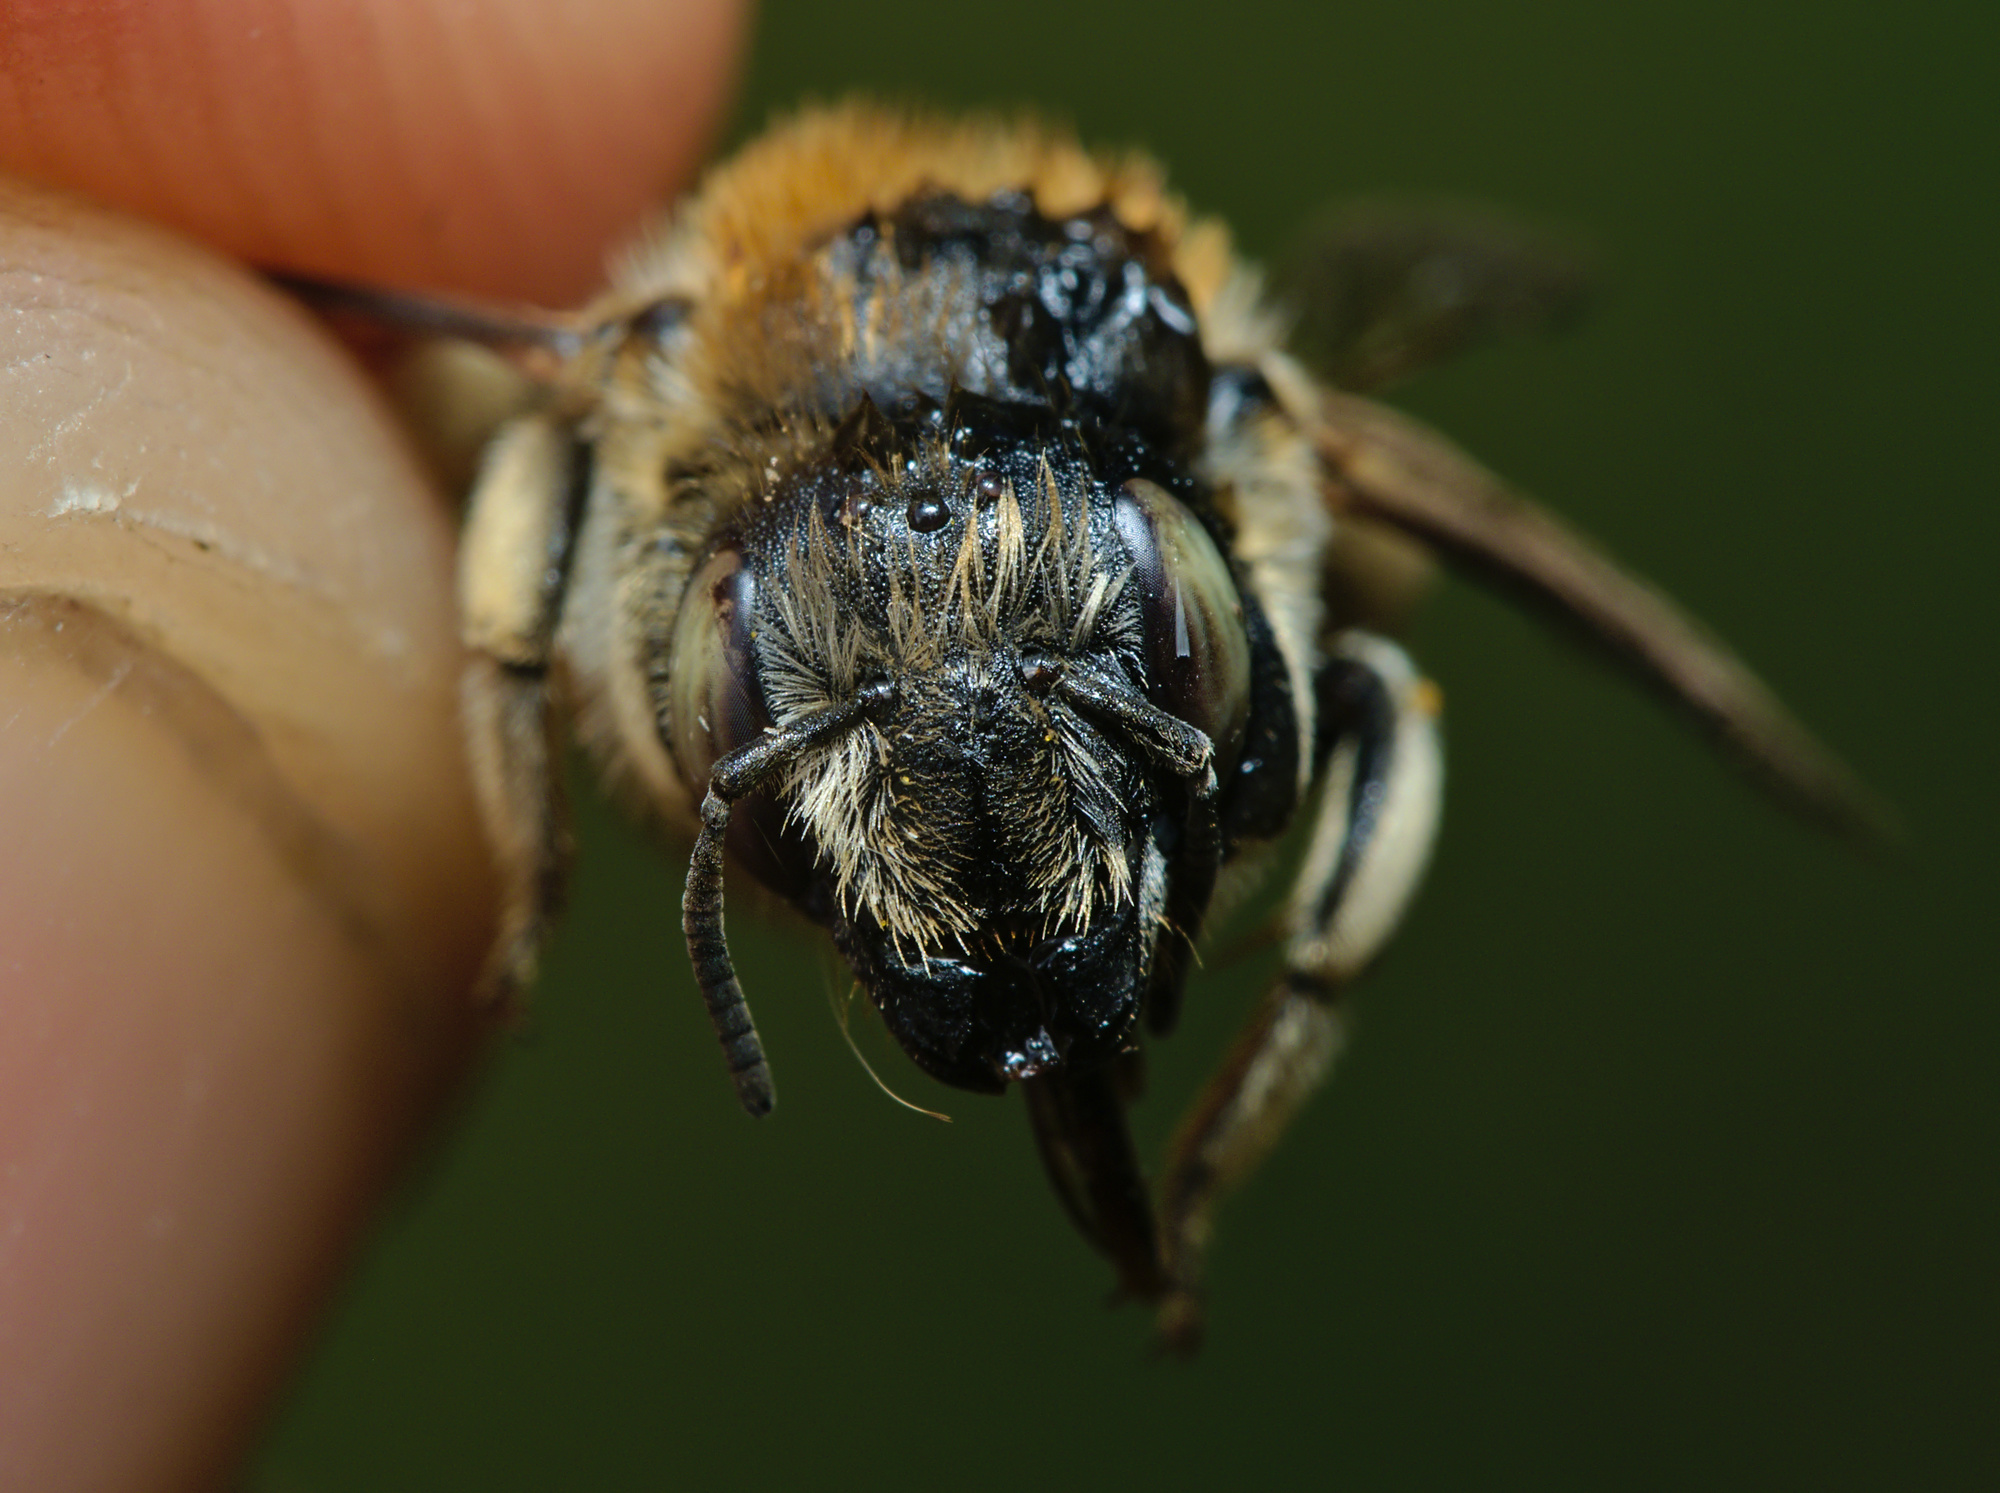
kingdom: Animalia
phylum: Arthropoda
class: Insecta
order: Hymenoptera
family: Megachilidae
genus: Trachusa
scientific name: Trachusa byssina
